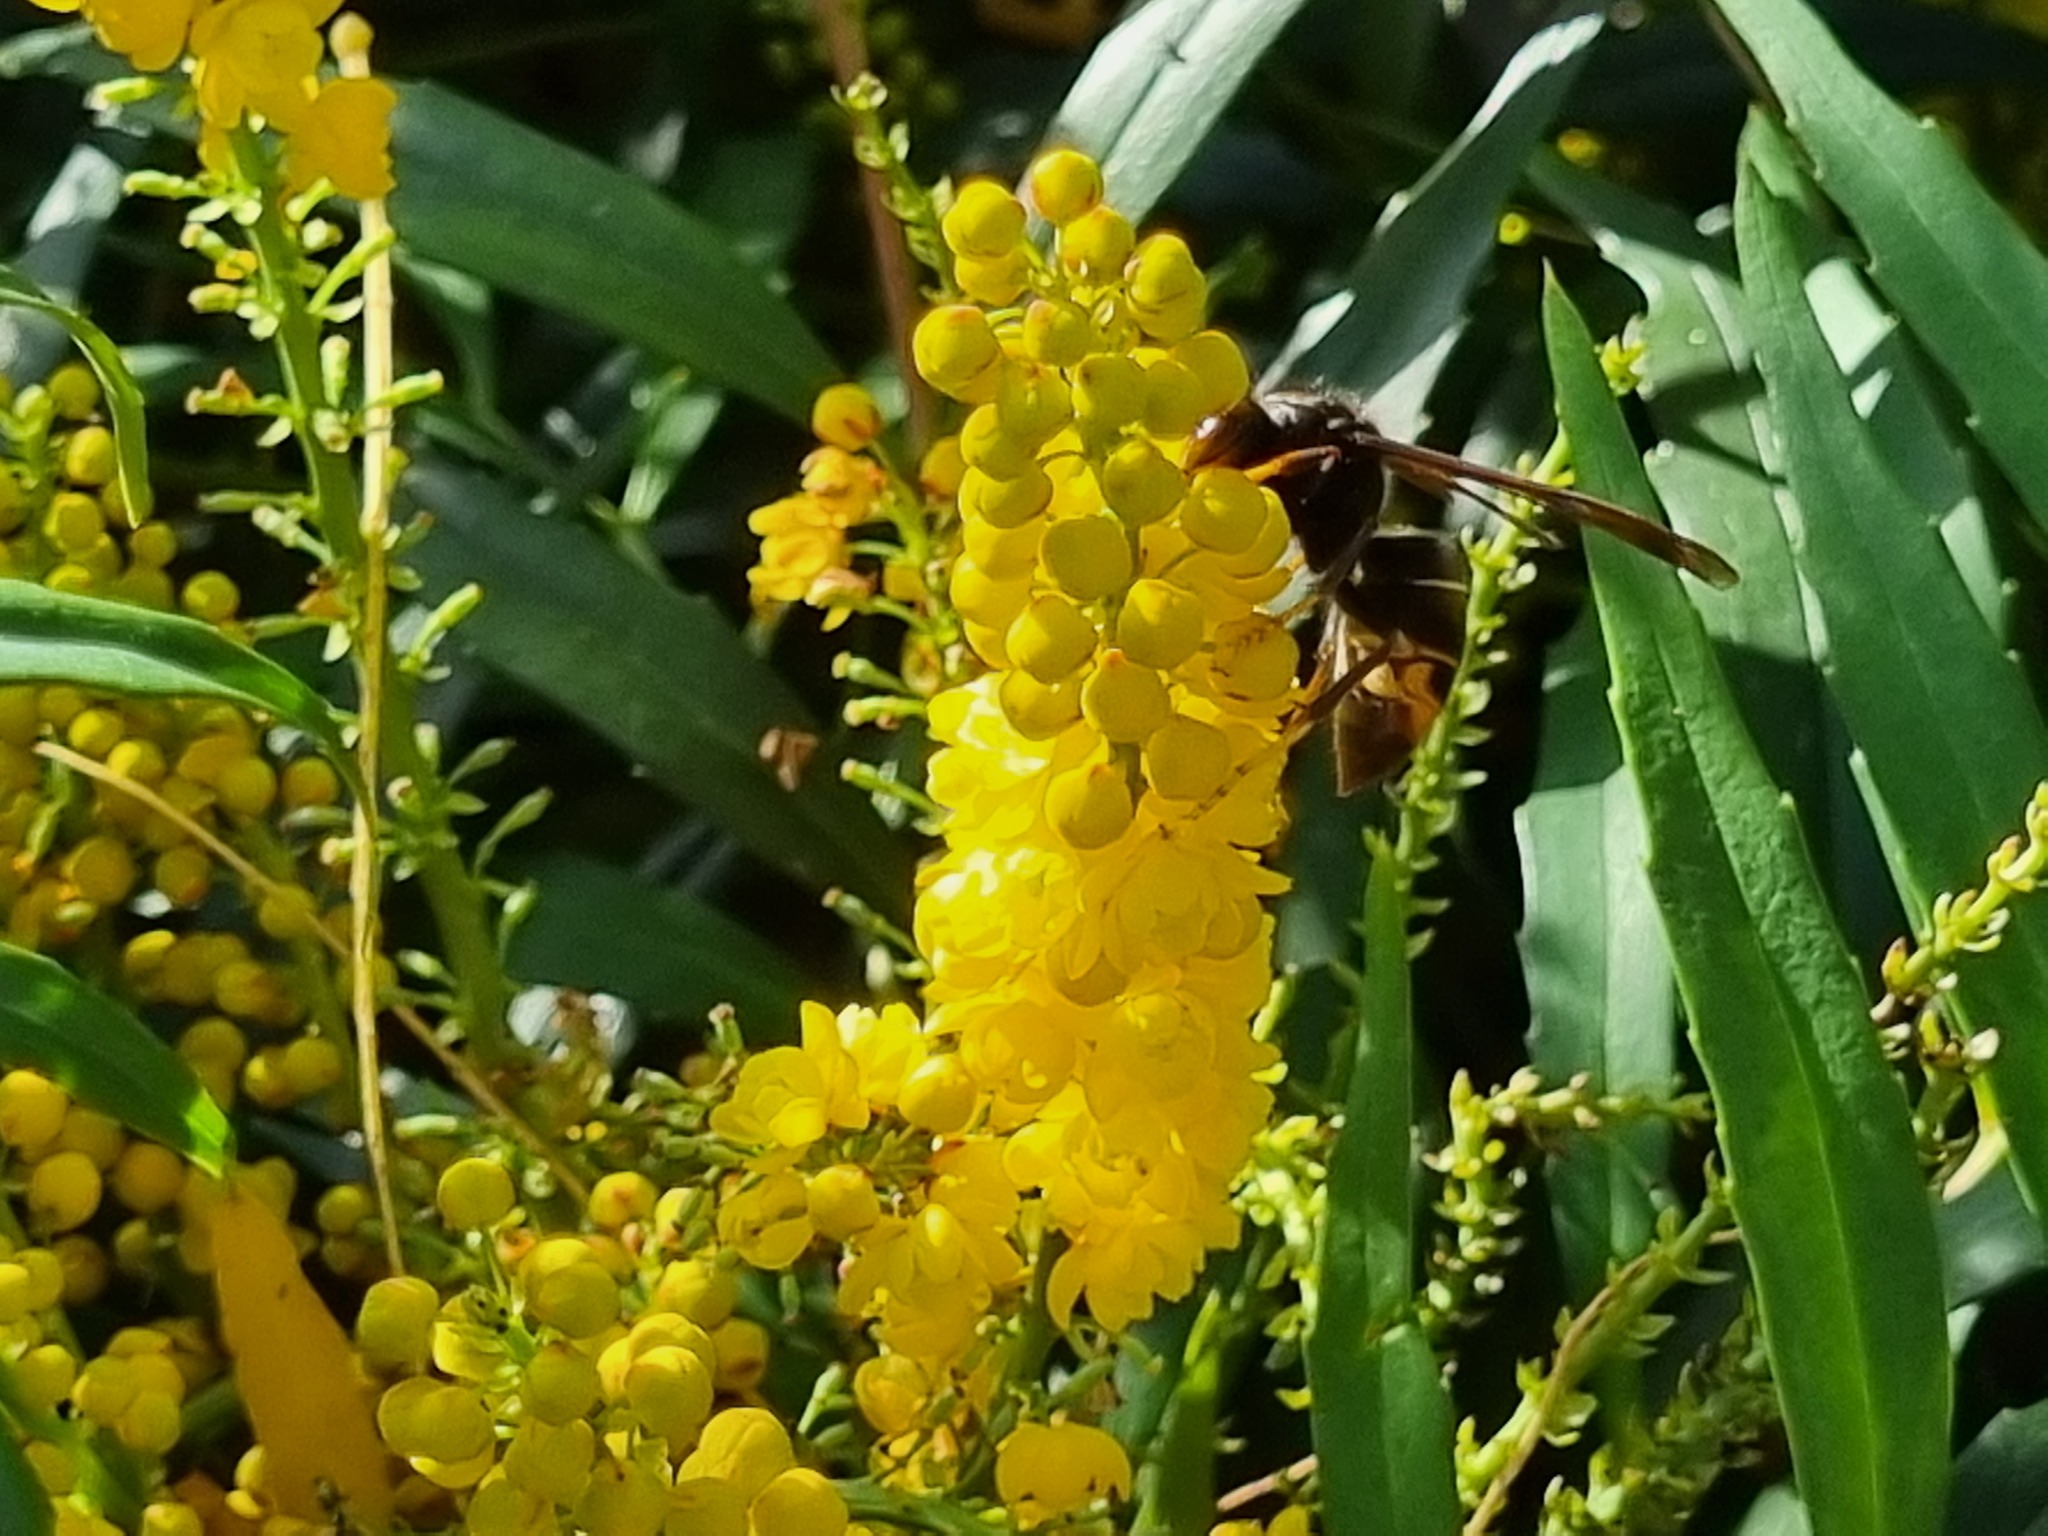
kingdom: Animalia
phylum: Arthropoda
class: Insecta
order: Hymenoptera
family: Vespidae
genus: Vespa
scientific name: Vespa velutina
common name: Asian hornet
